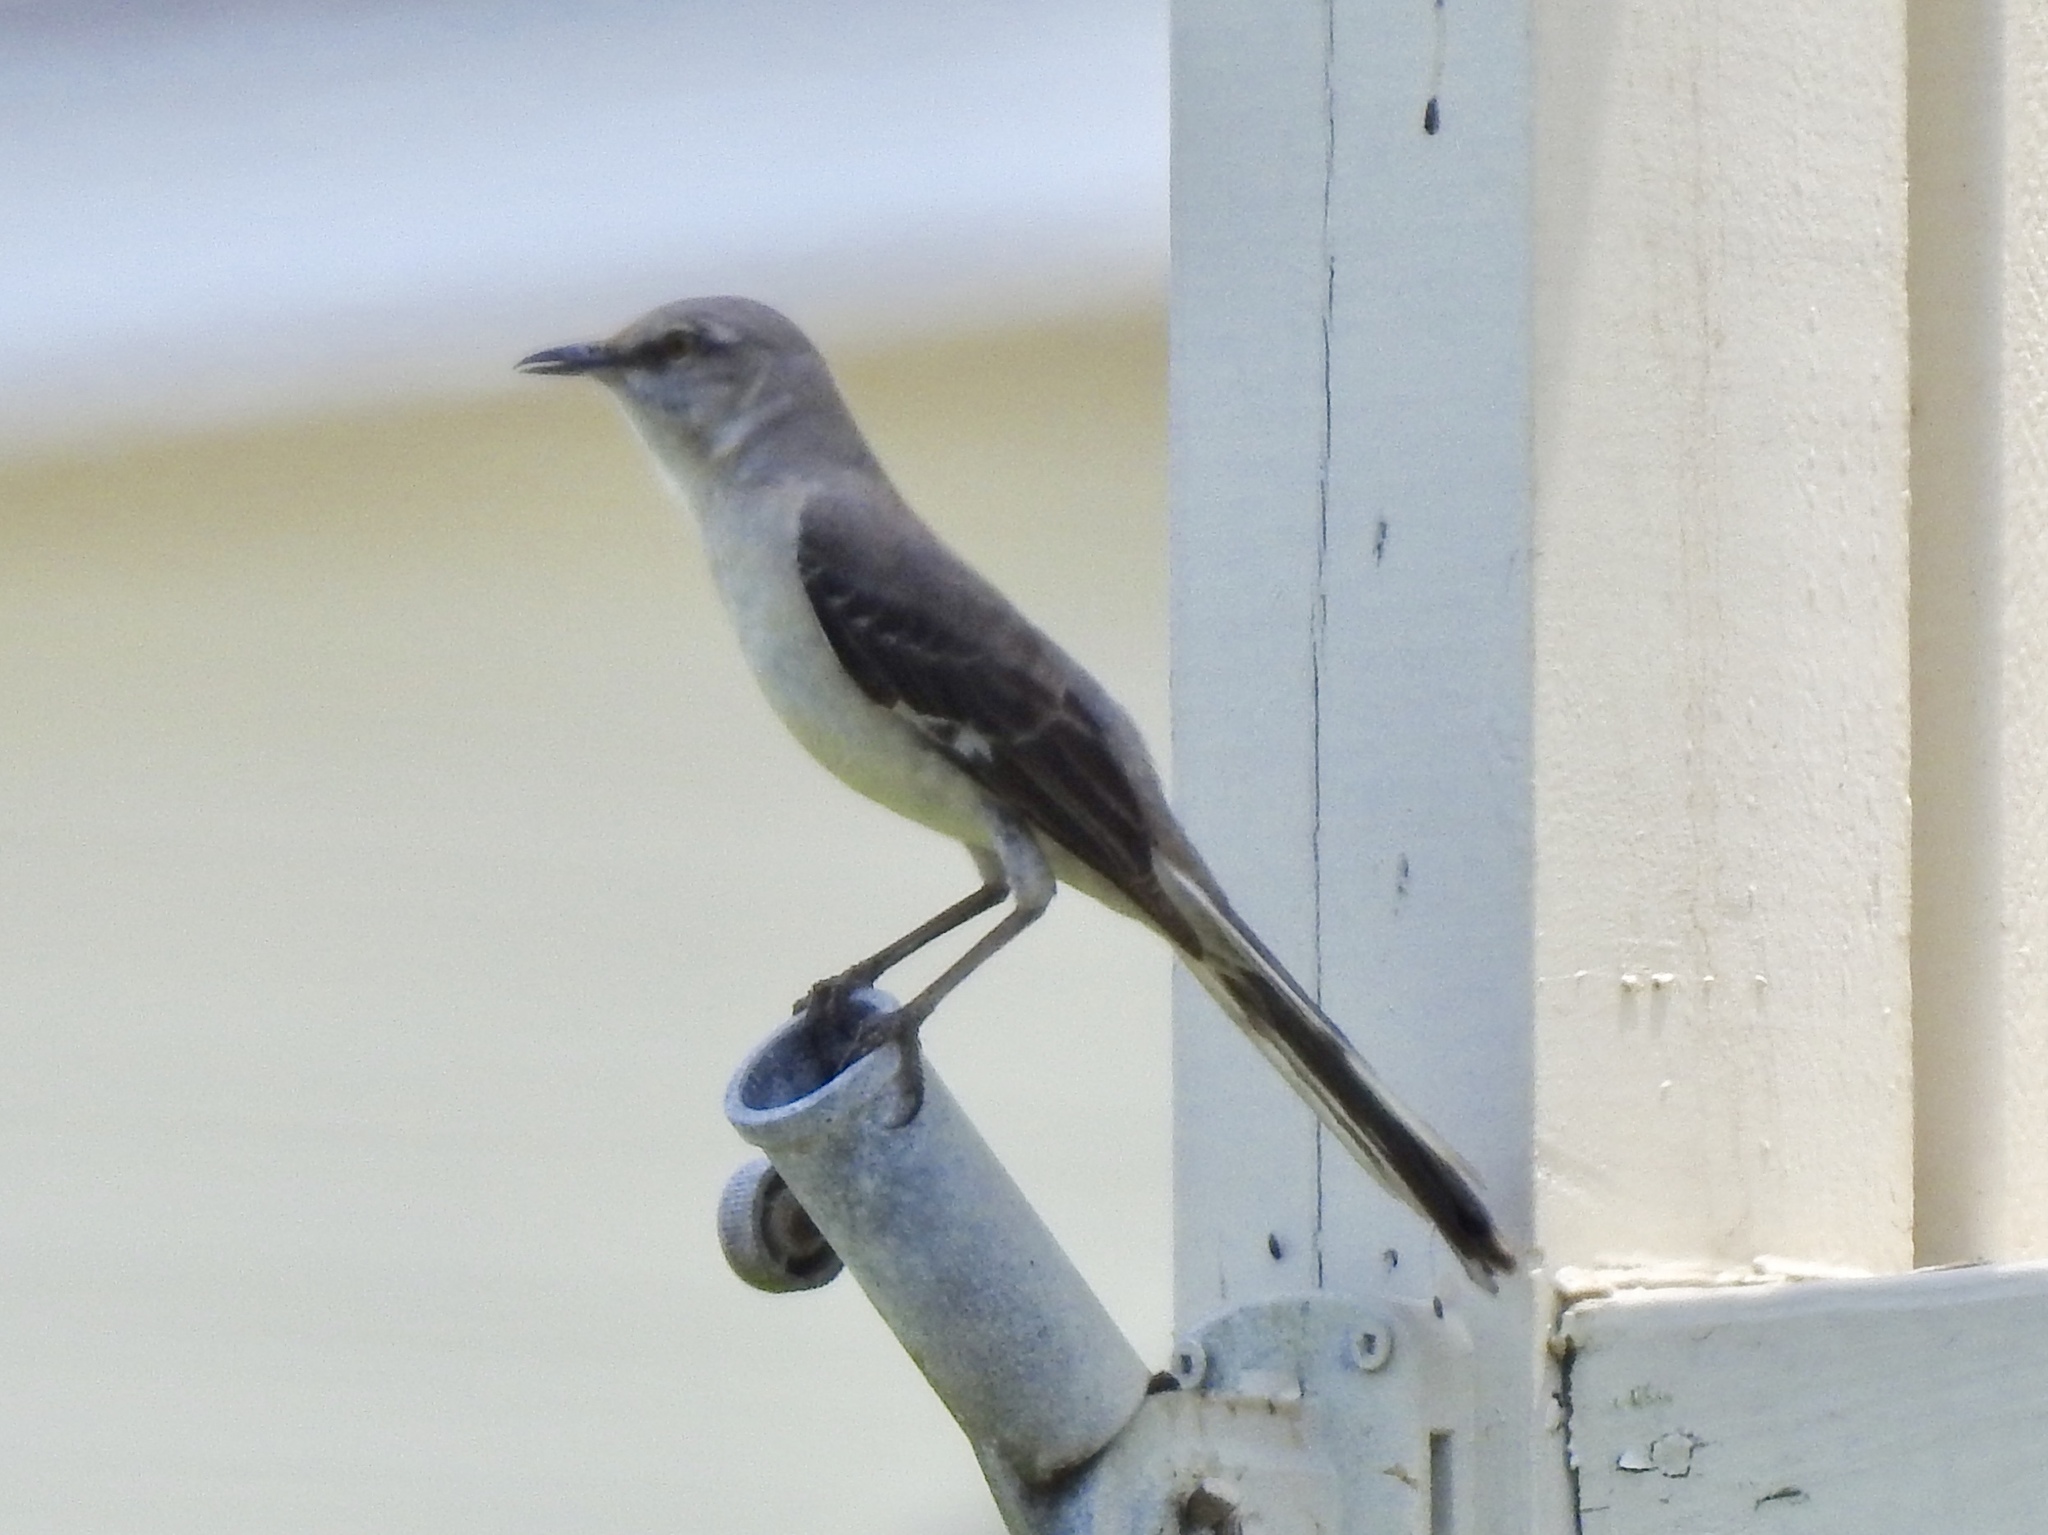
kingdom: Animalia
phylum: Chordata
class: Aves
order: Passeriformes
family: Mimidae
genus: Mimus
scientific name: Mimus polyglottos
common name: Northern mockingbird
